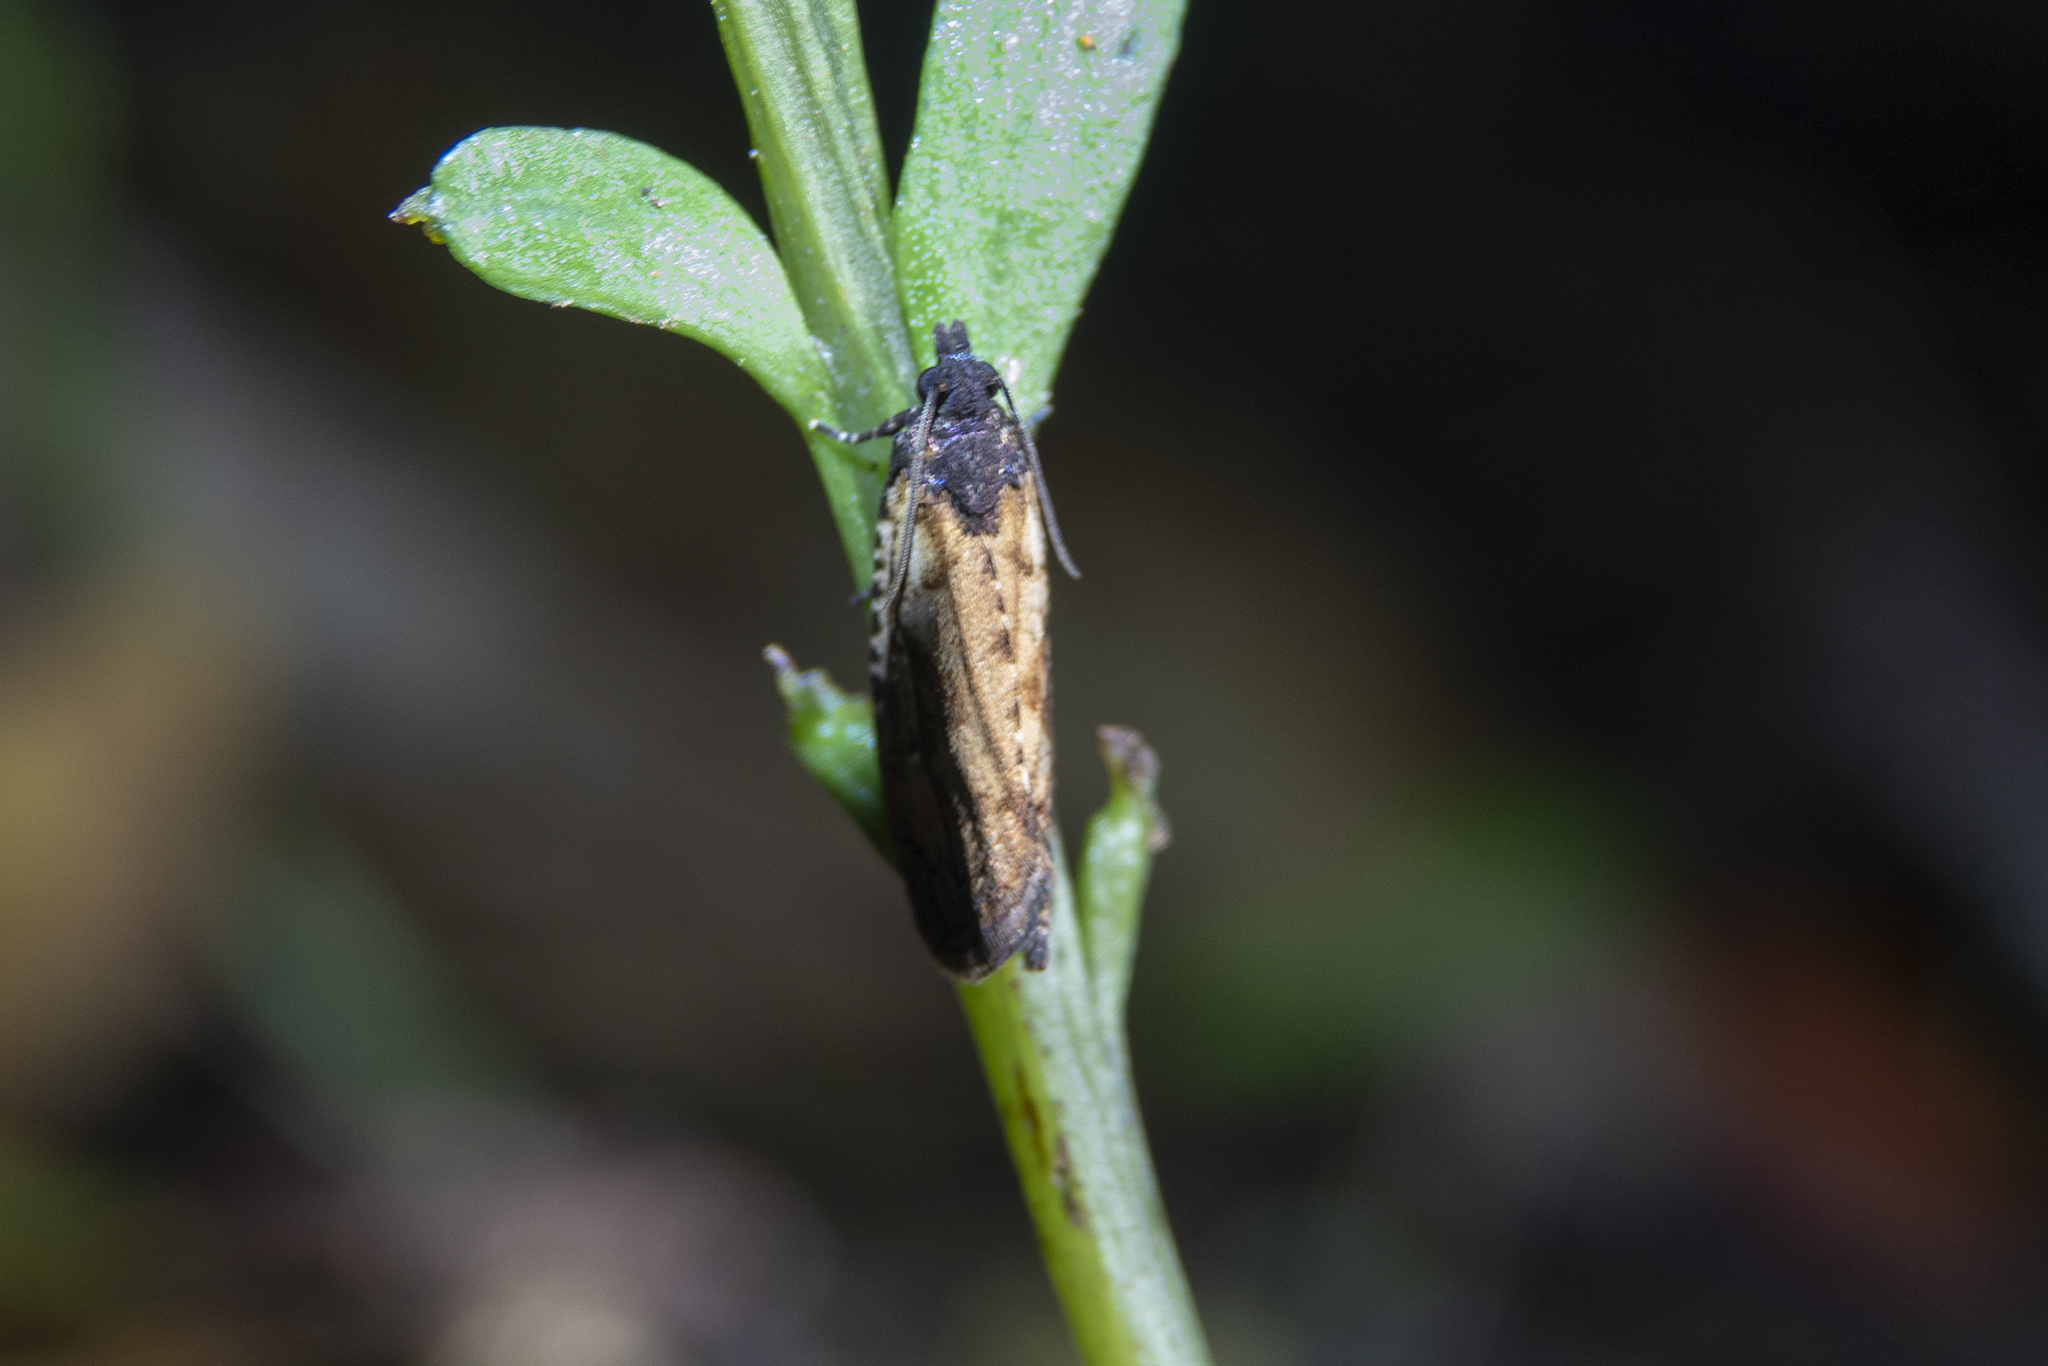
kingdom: Animalia
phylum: Arthropoda
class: Insecta
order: Lepidoptera
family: Tortricidae
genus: Cryptaspasma
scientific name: Cryptaspasma querula
